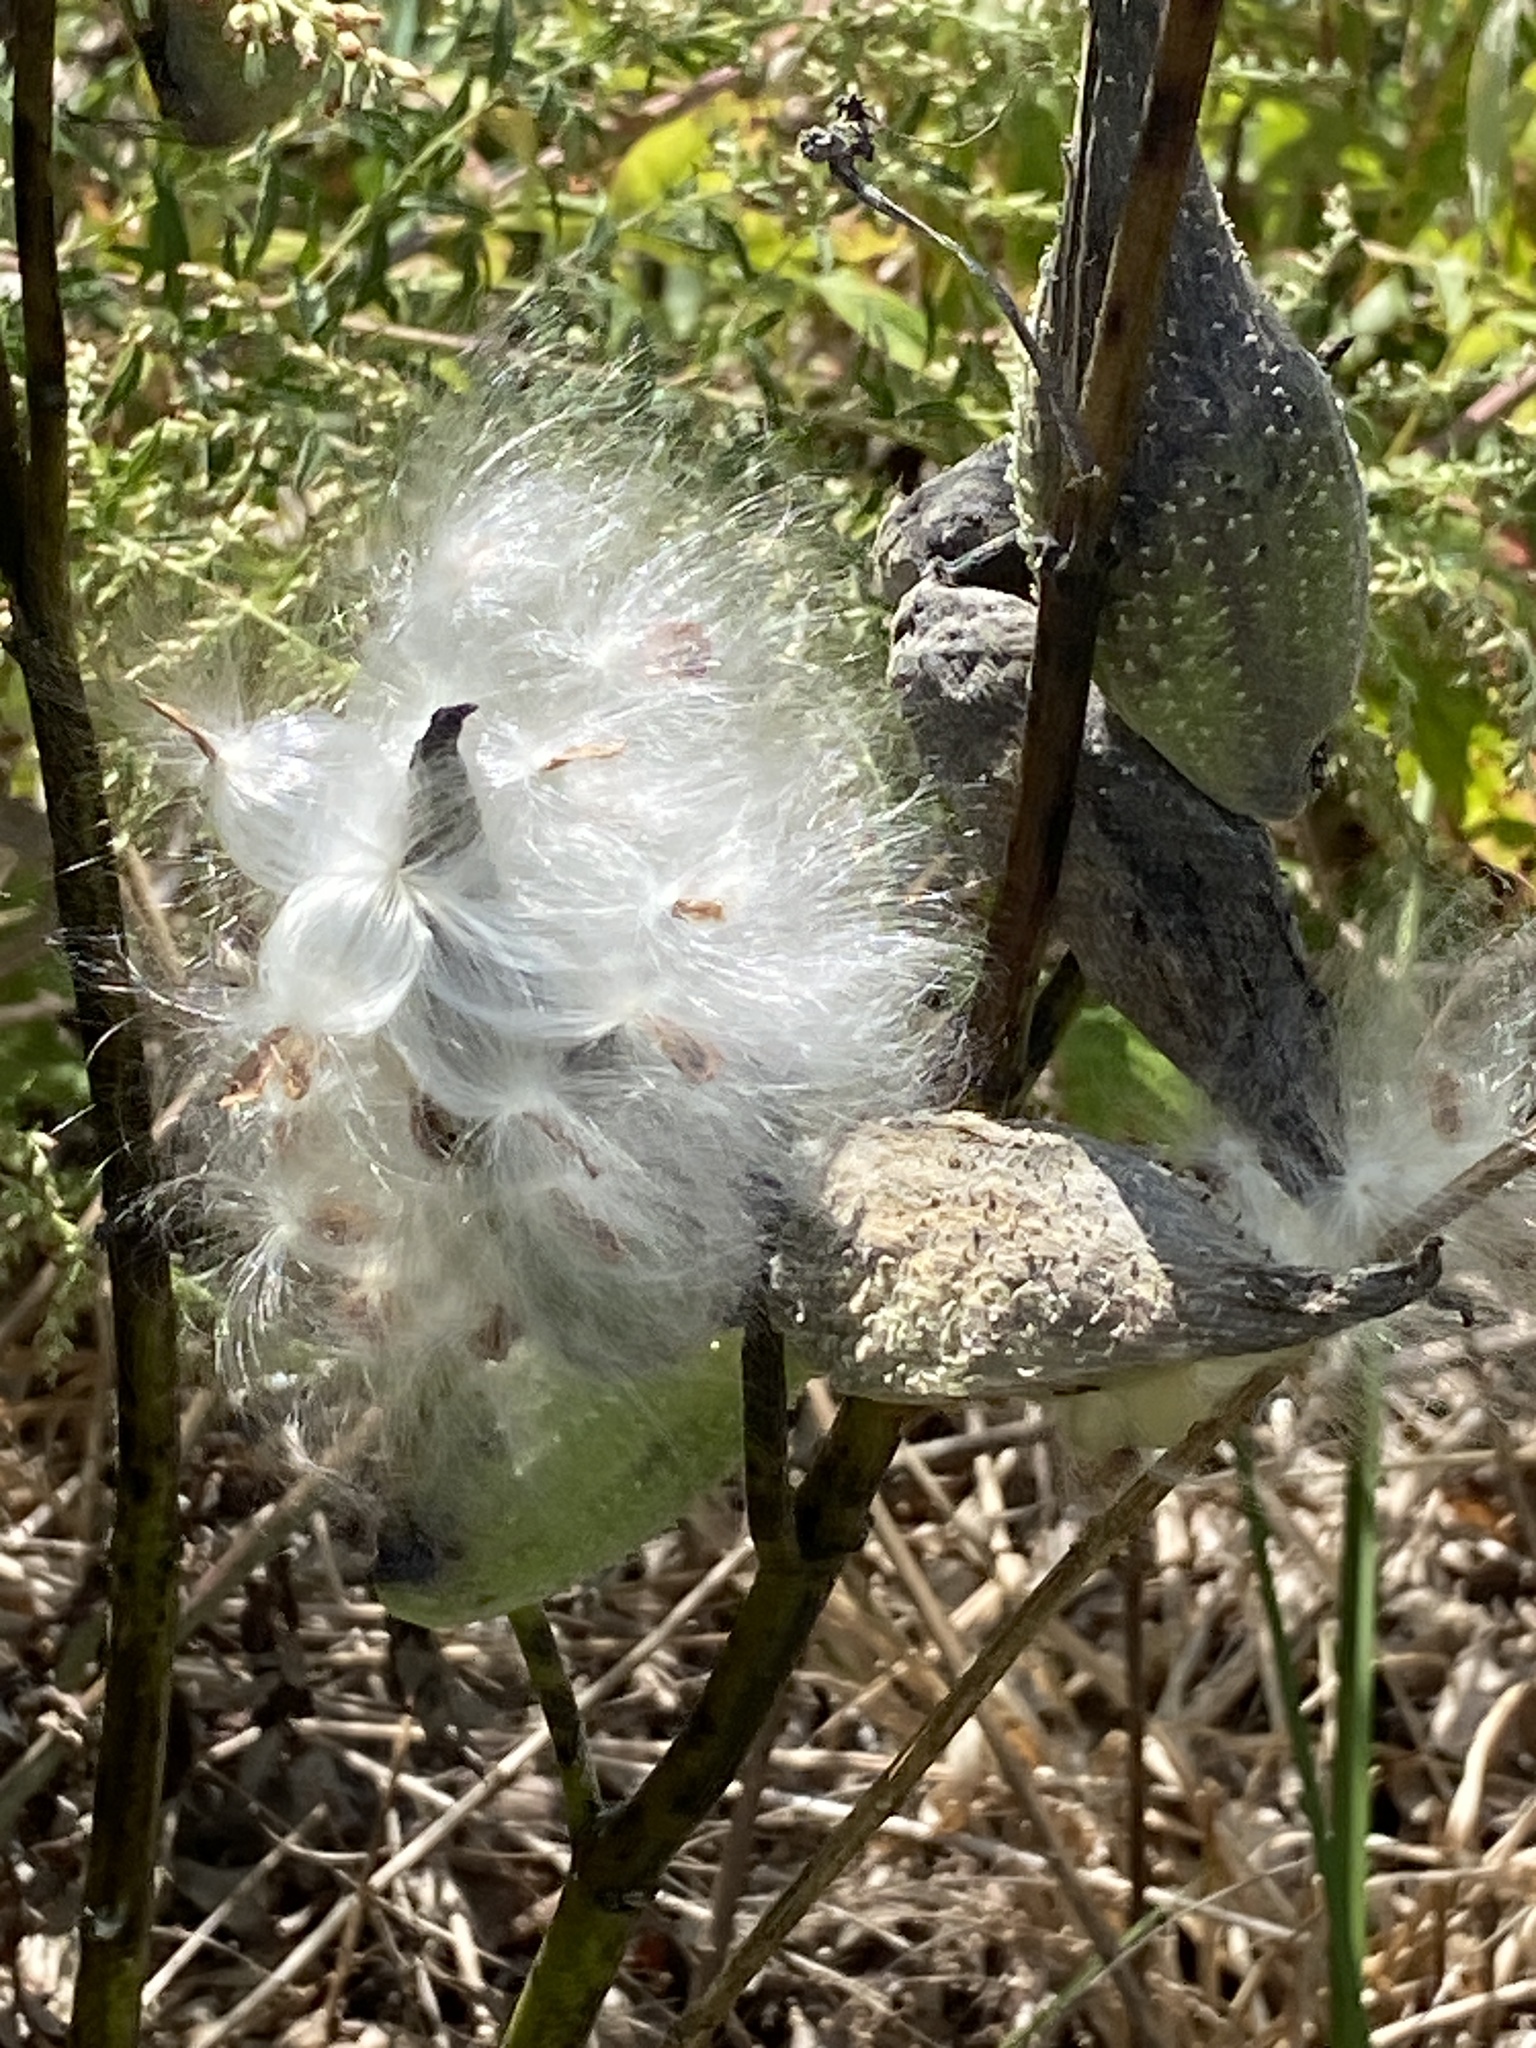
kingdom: Plantae
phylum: Tracheophyta
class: Magnoliopsida
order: Gentianales
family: Apocynaceae
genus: Asclepias
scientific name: Asclepias syriaca
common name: Common milkweed
